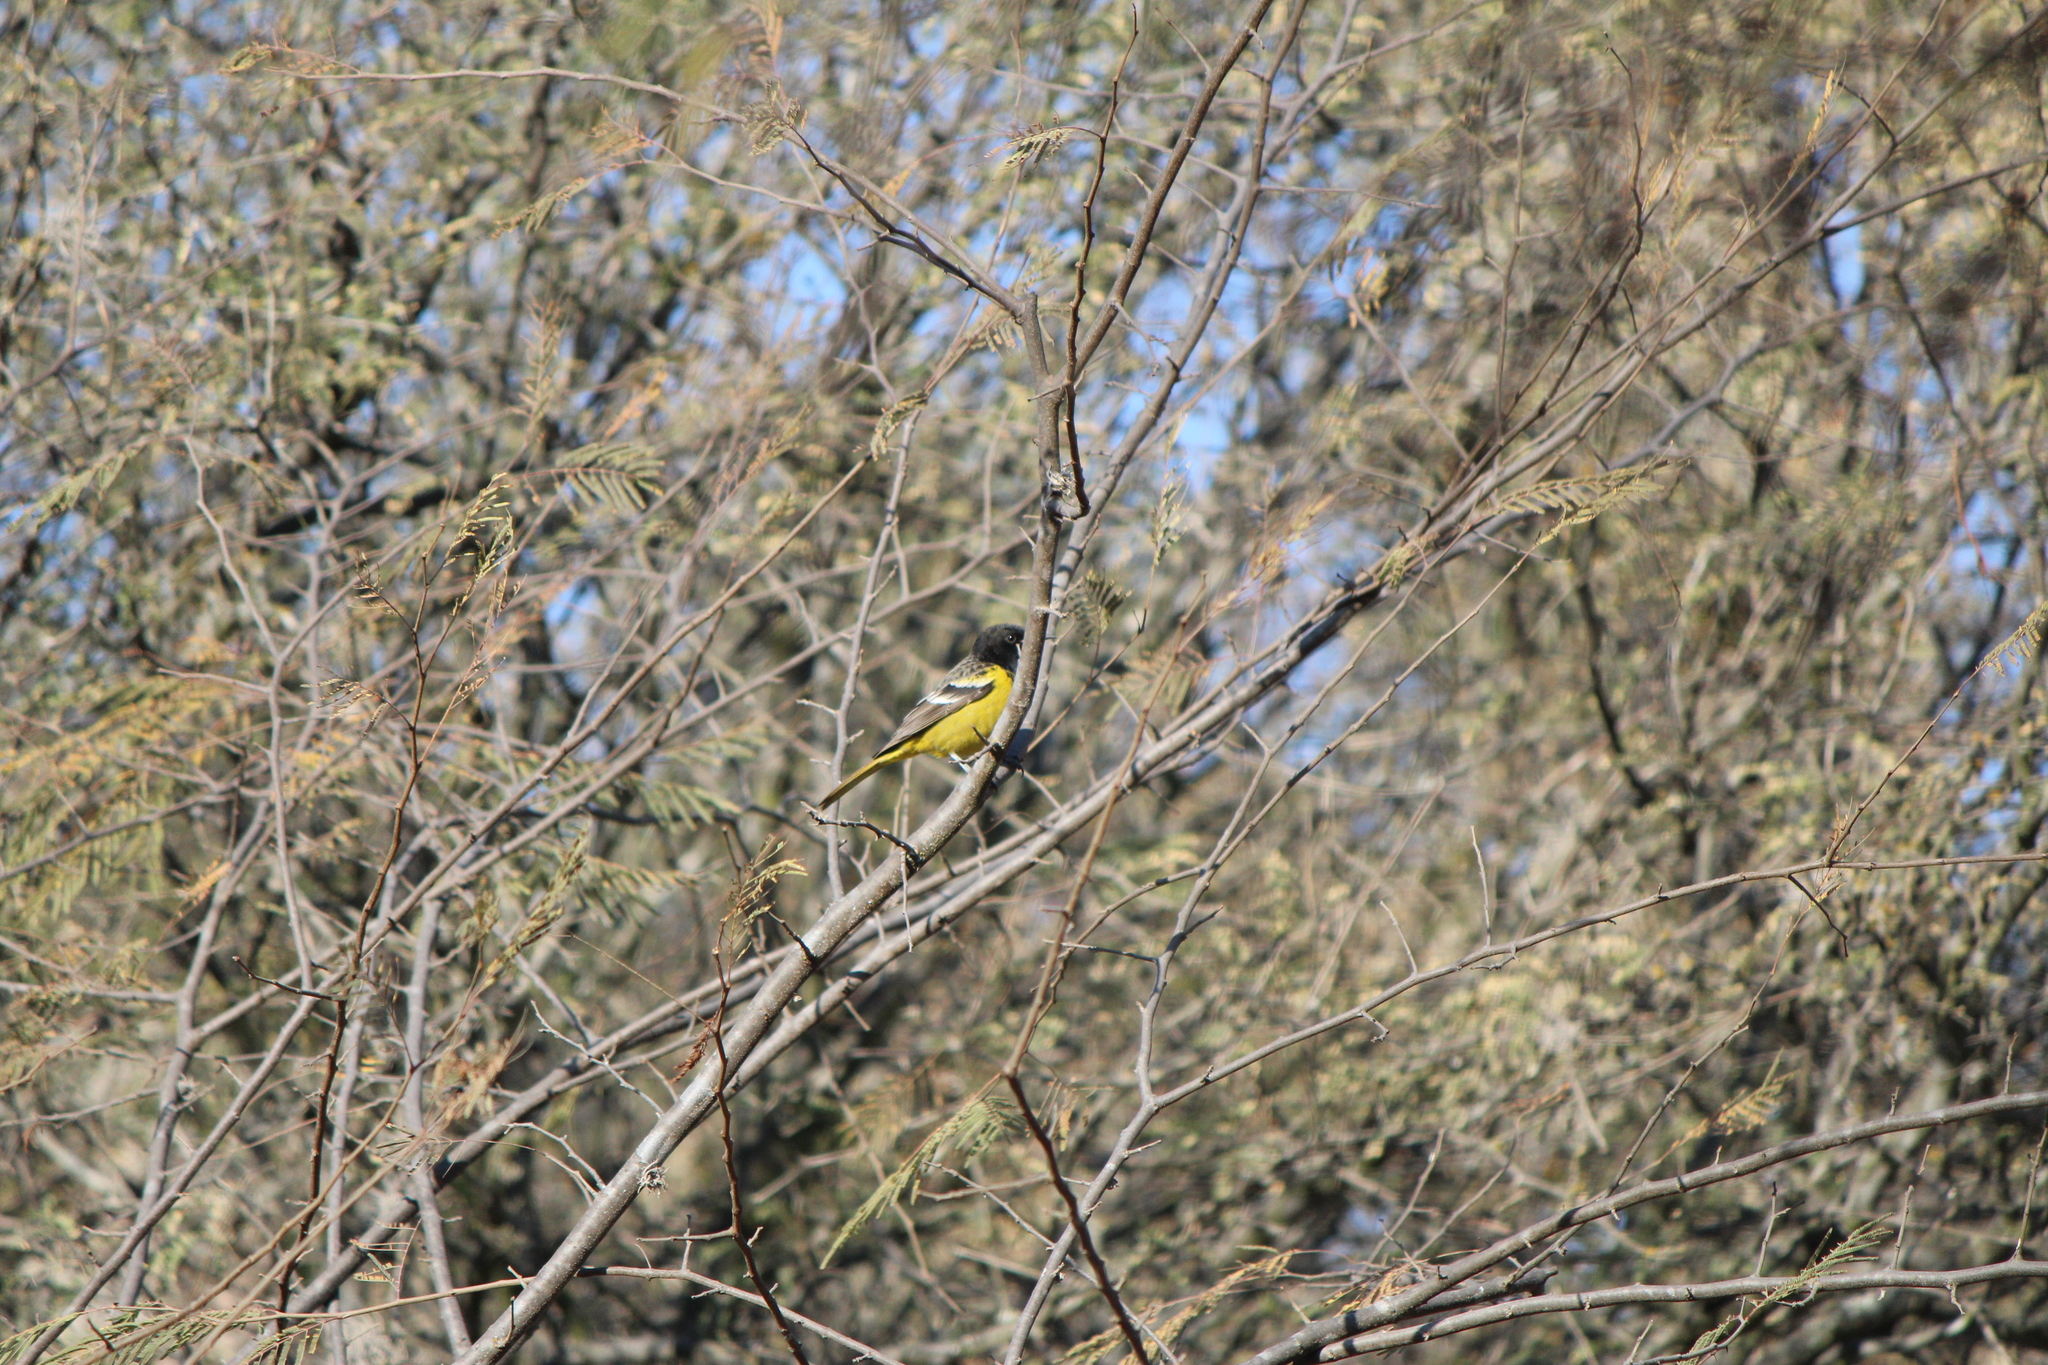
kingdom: Animalia
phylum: Chordata
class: Aves
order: Passeriformes
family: Icteridae
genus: Icterus
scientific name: Icterus parisorum
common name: Scott's oriole
